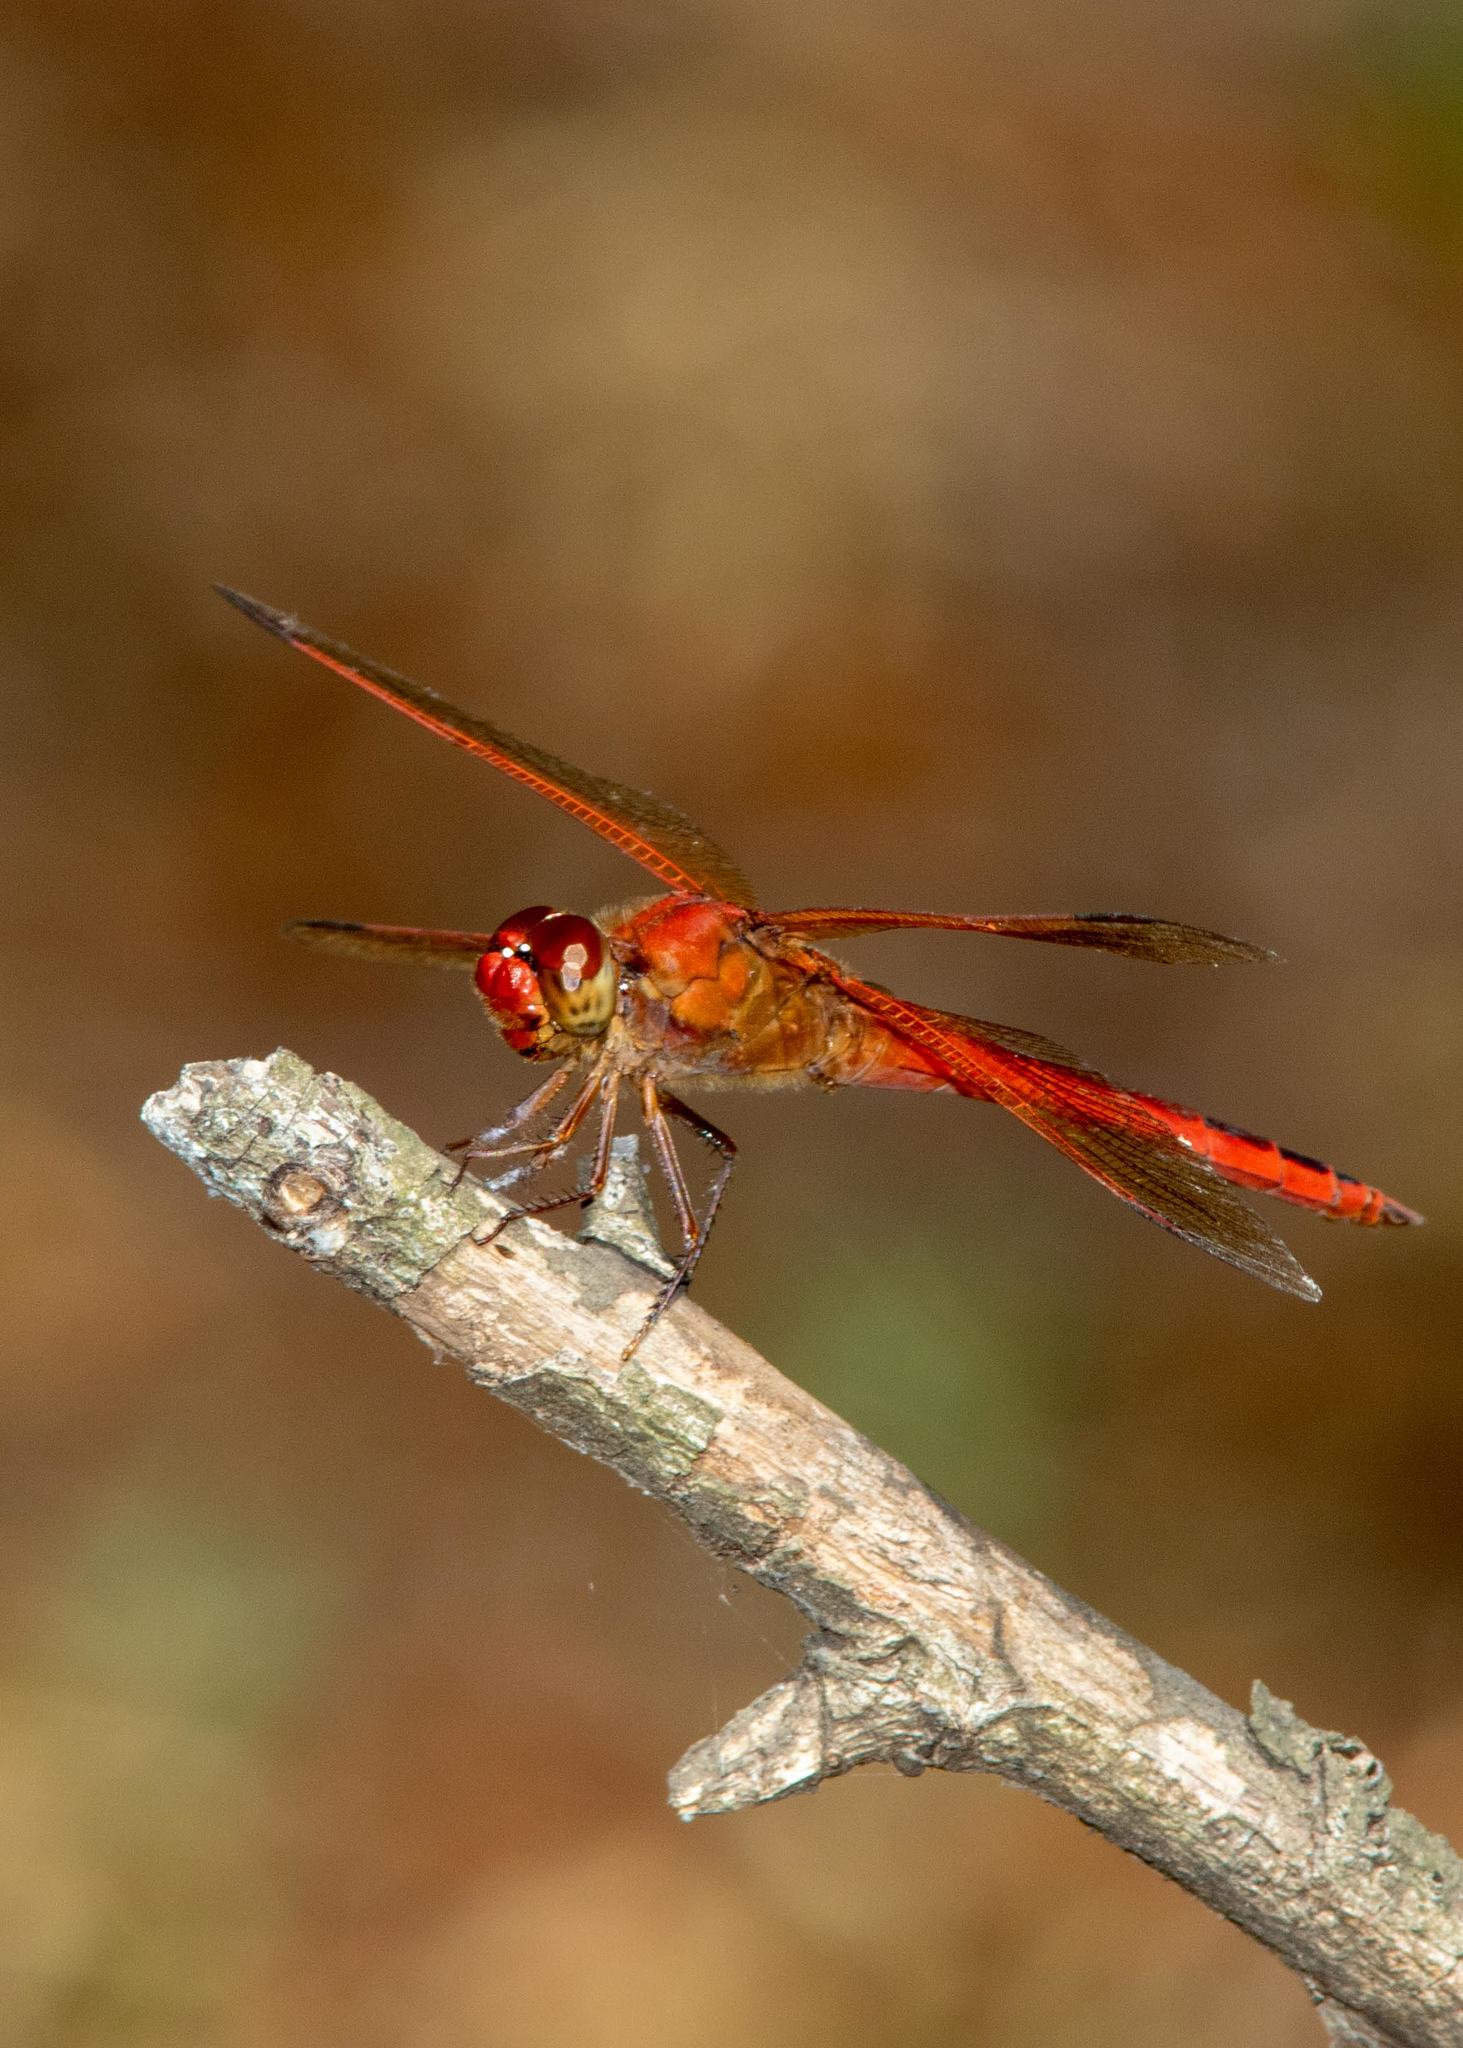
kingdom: Animalia
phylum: Arthropoda
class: Insecta
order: Odonata
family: Libellulidae
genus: Libellula
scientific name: Libellula needhami
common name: Needham's skimmer
